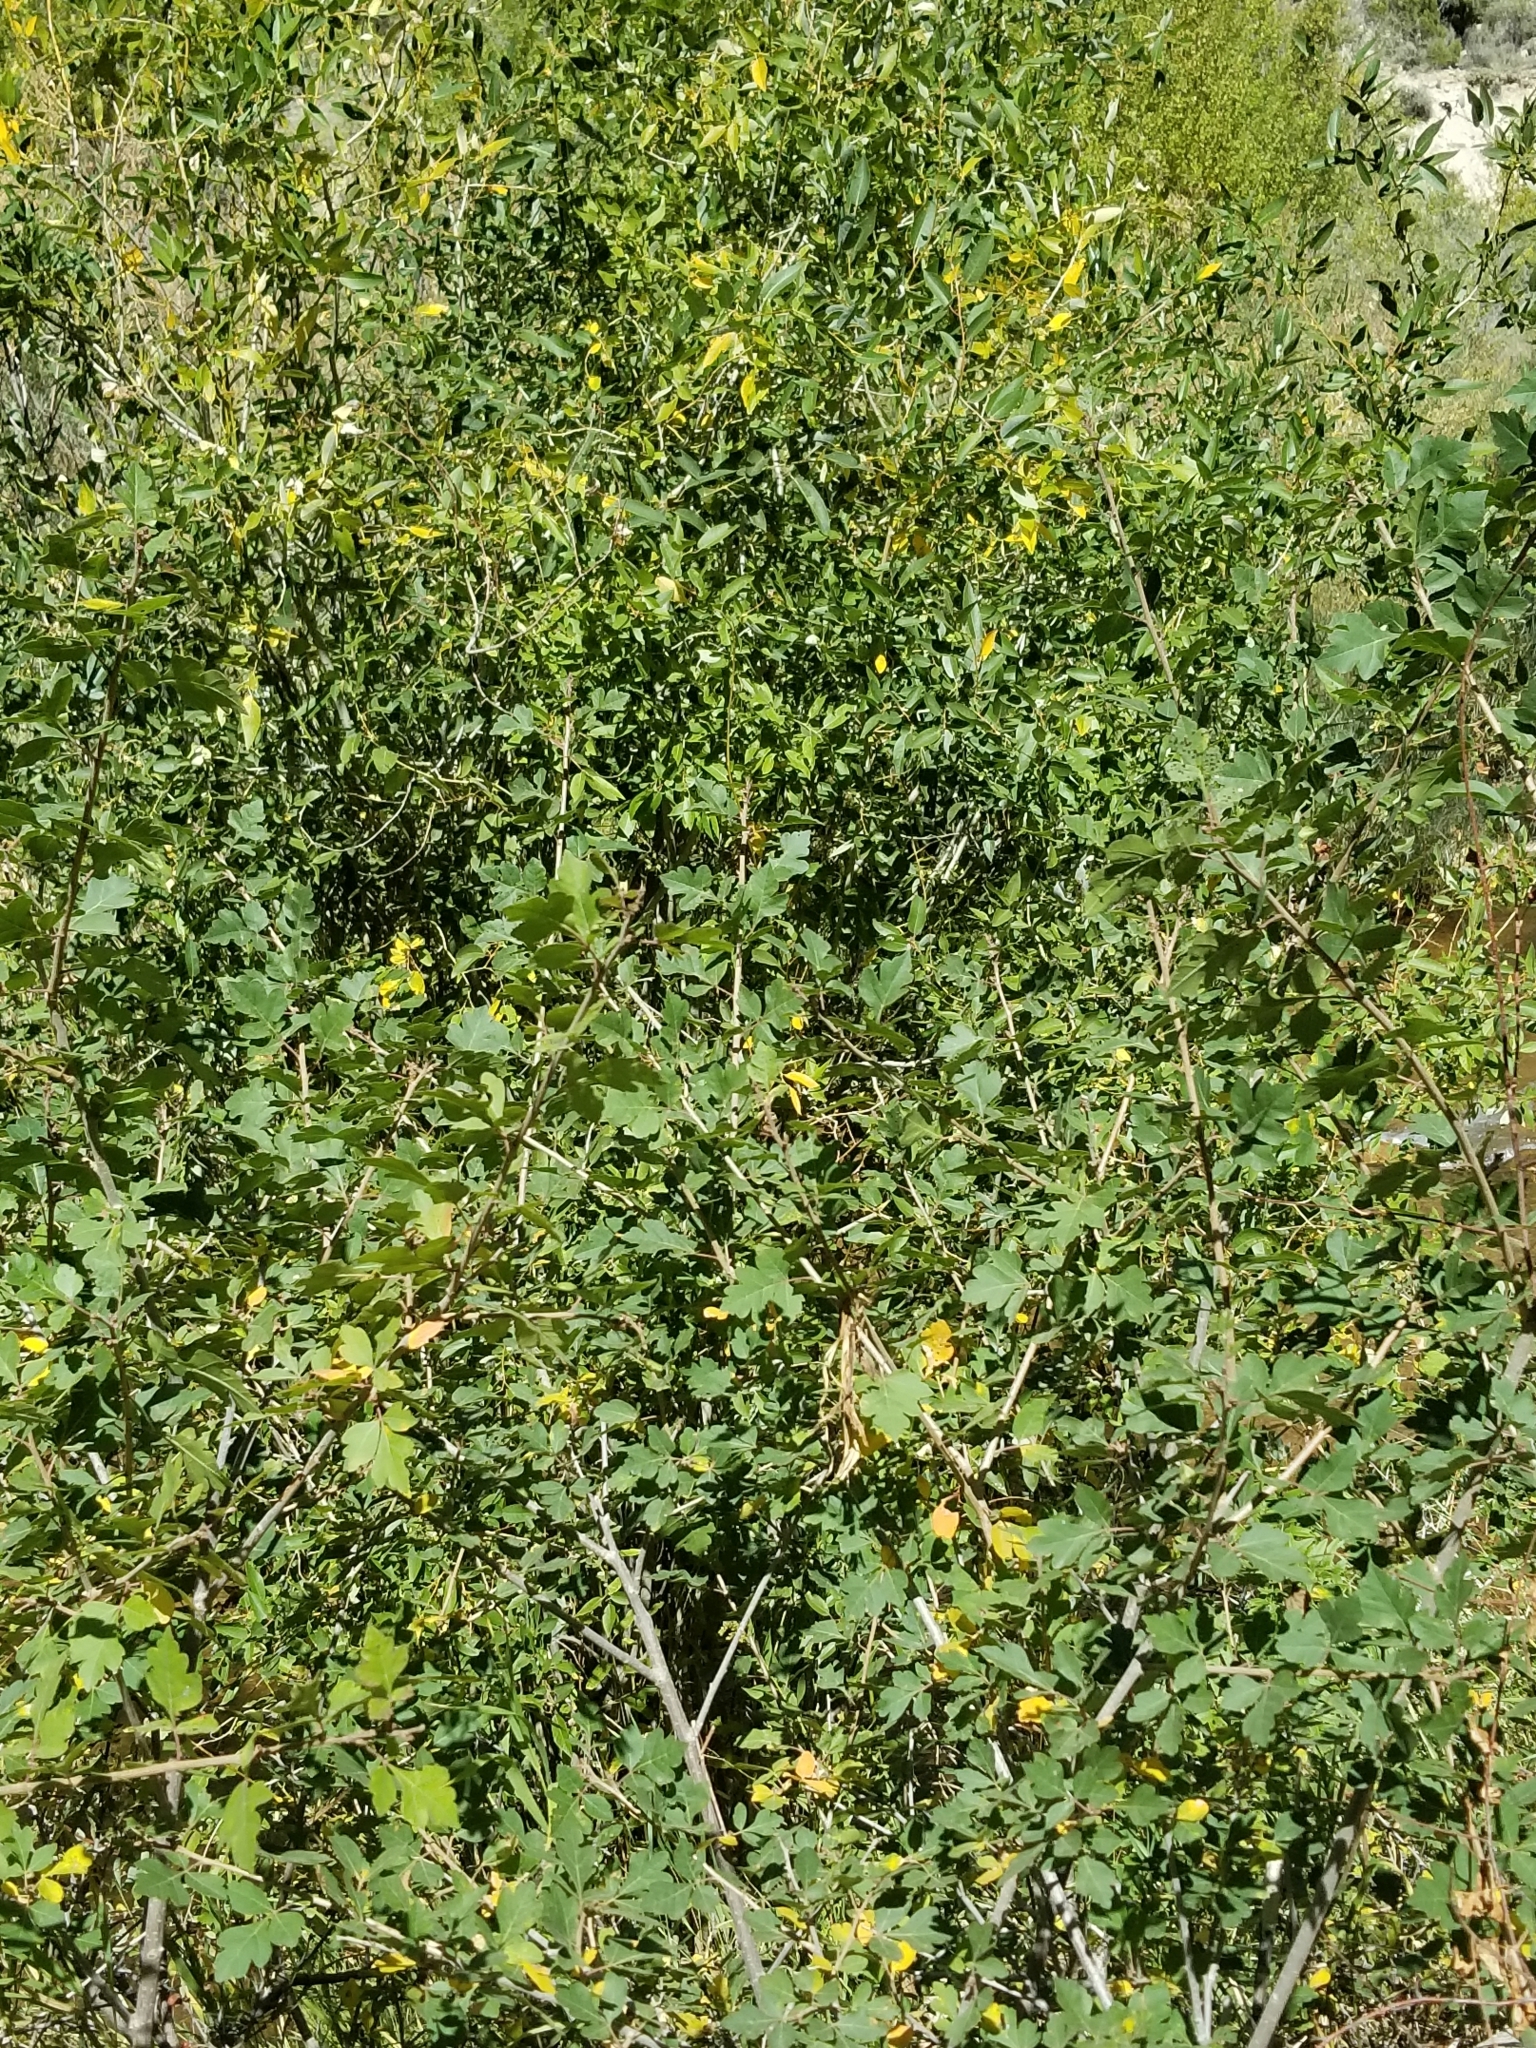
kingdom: Plantae
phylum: Tracheophyta
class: Magnoliopsida
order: Sapindales
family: Anacardiaceae
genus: Rhus
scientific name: Rhus aromatica
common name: Aromatic sumac
